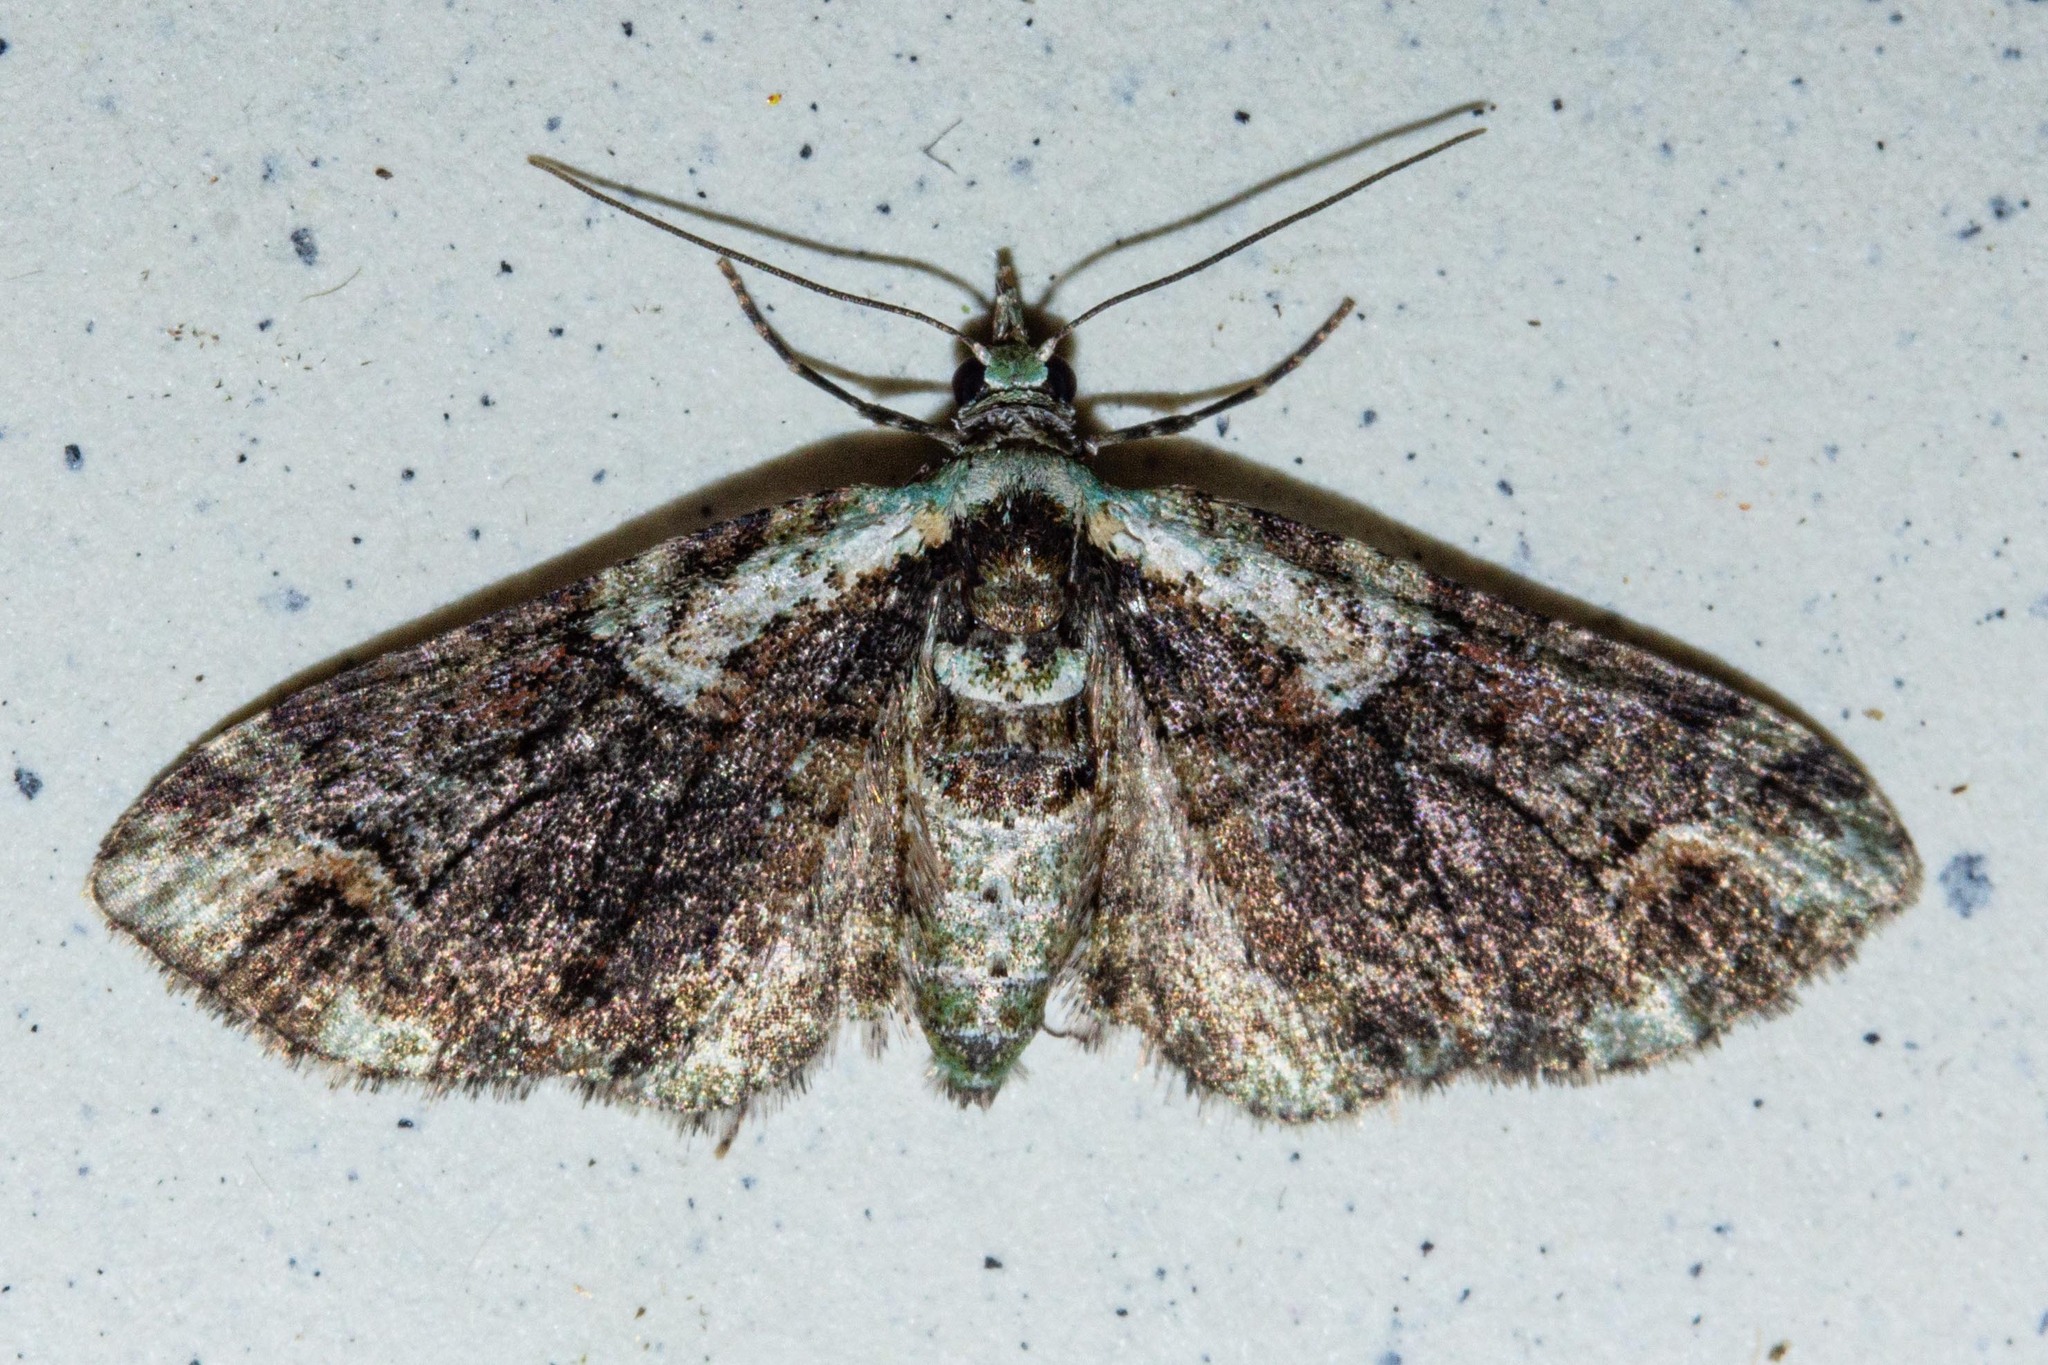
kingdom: Animalia
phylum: Arthropoda
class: Insecta
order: Lepidoptera
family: Geometridae
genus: Idaea
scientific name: Idaea mutanda
